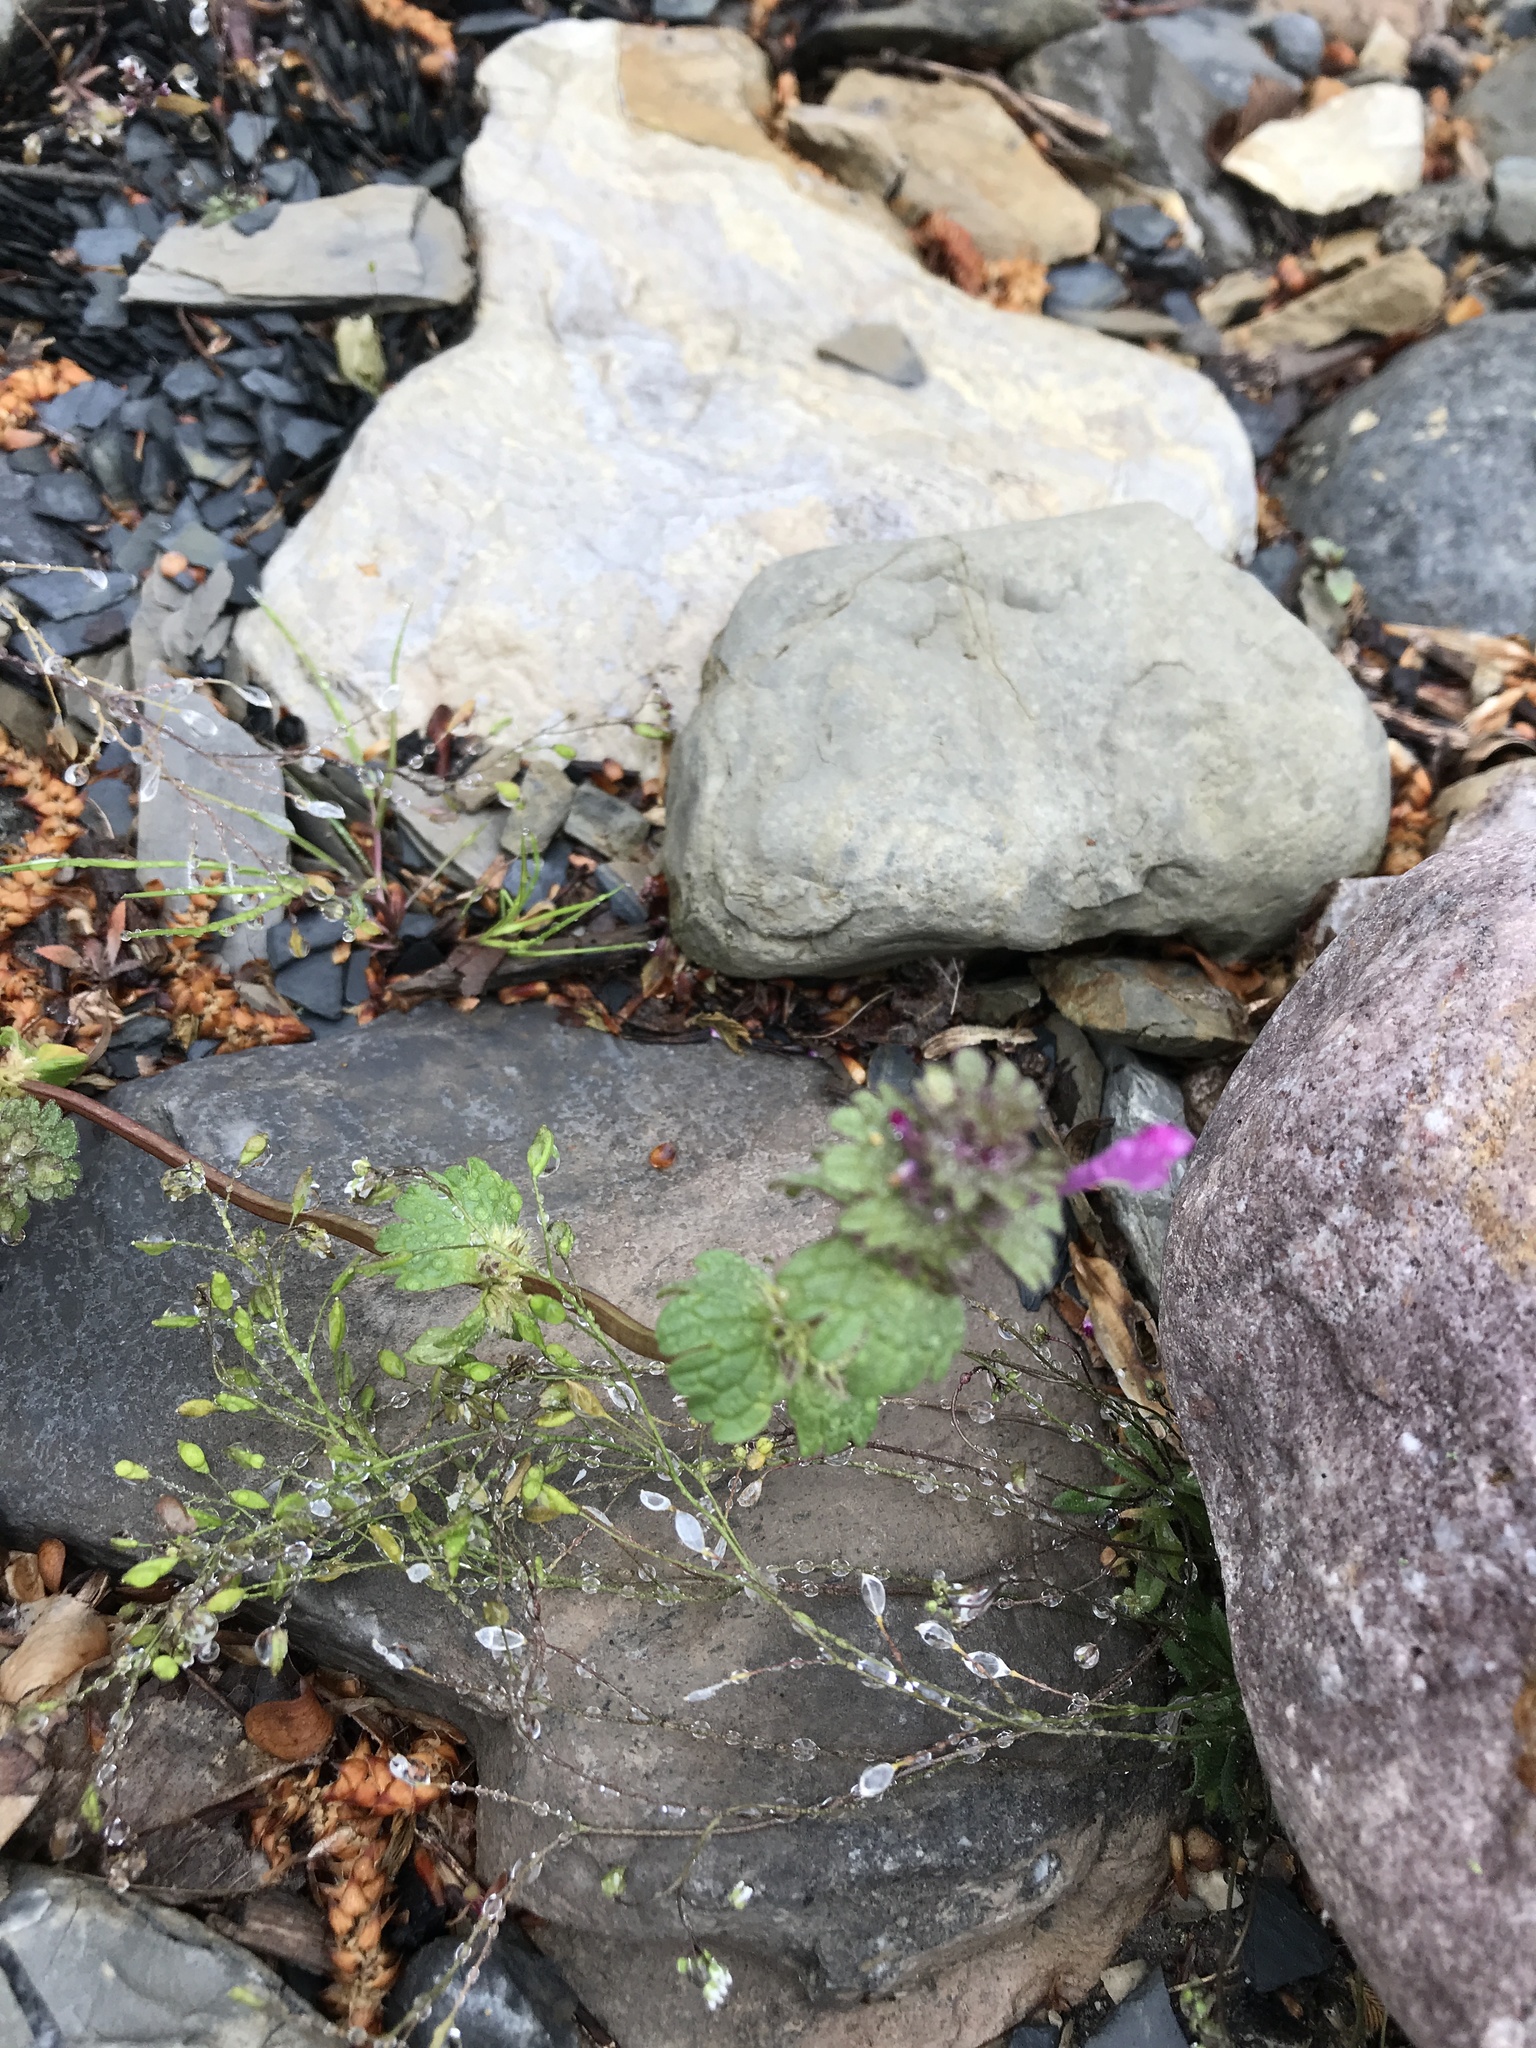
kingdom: Plantae
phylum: Tracheophyta
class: Magnoliopsida
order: Lamiales
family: Lamiaceae
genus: Lamium
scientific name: Lamium amplexicaule
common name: Henbit dead-nettle
